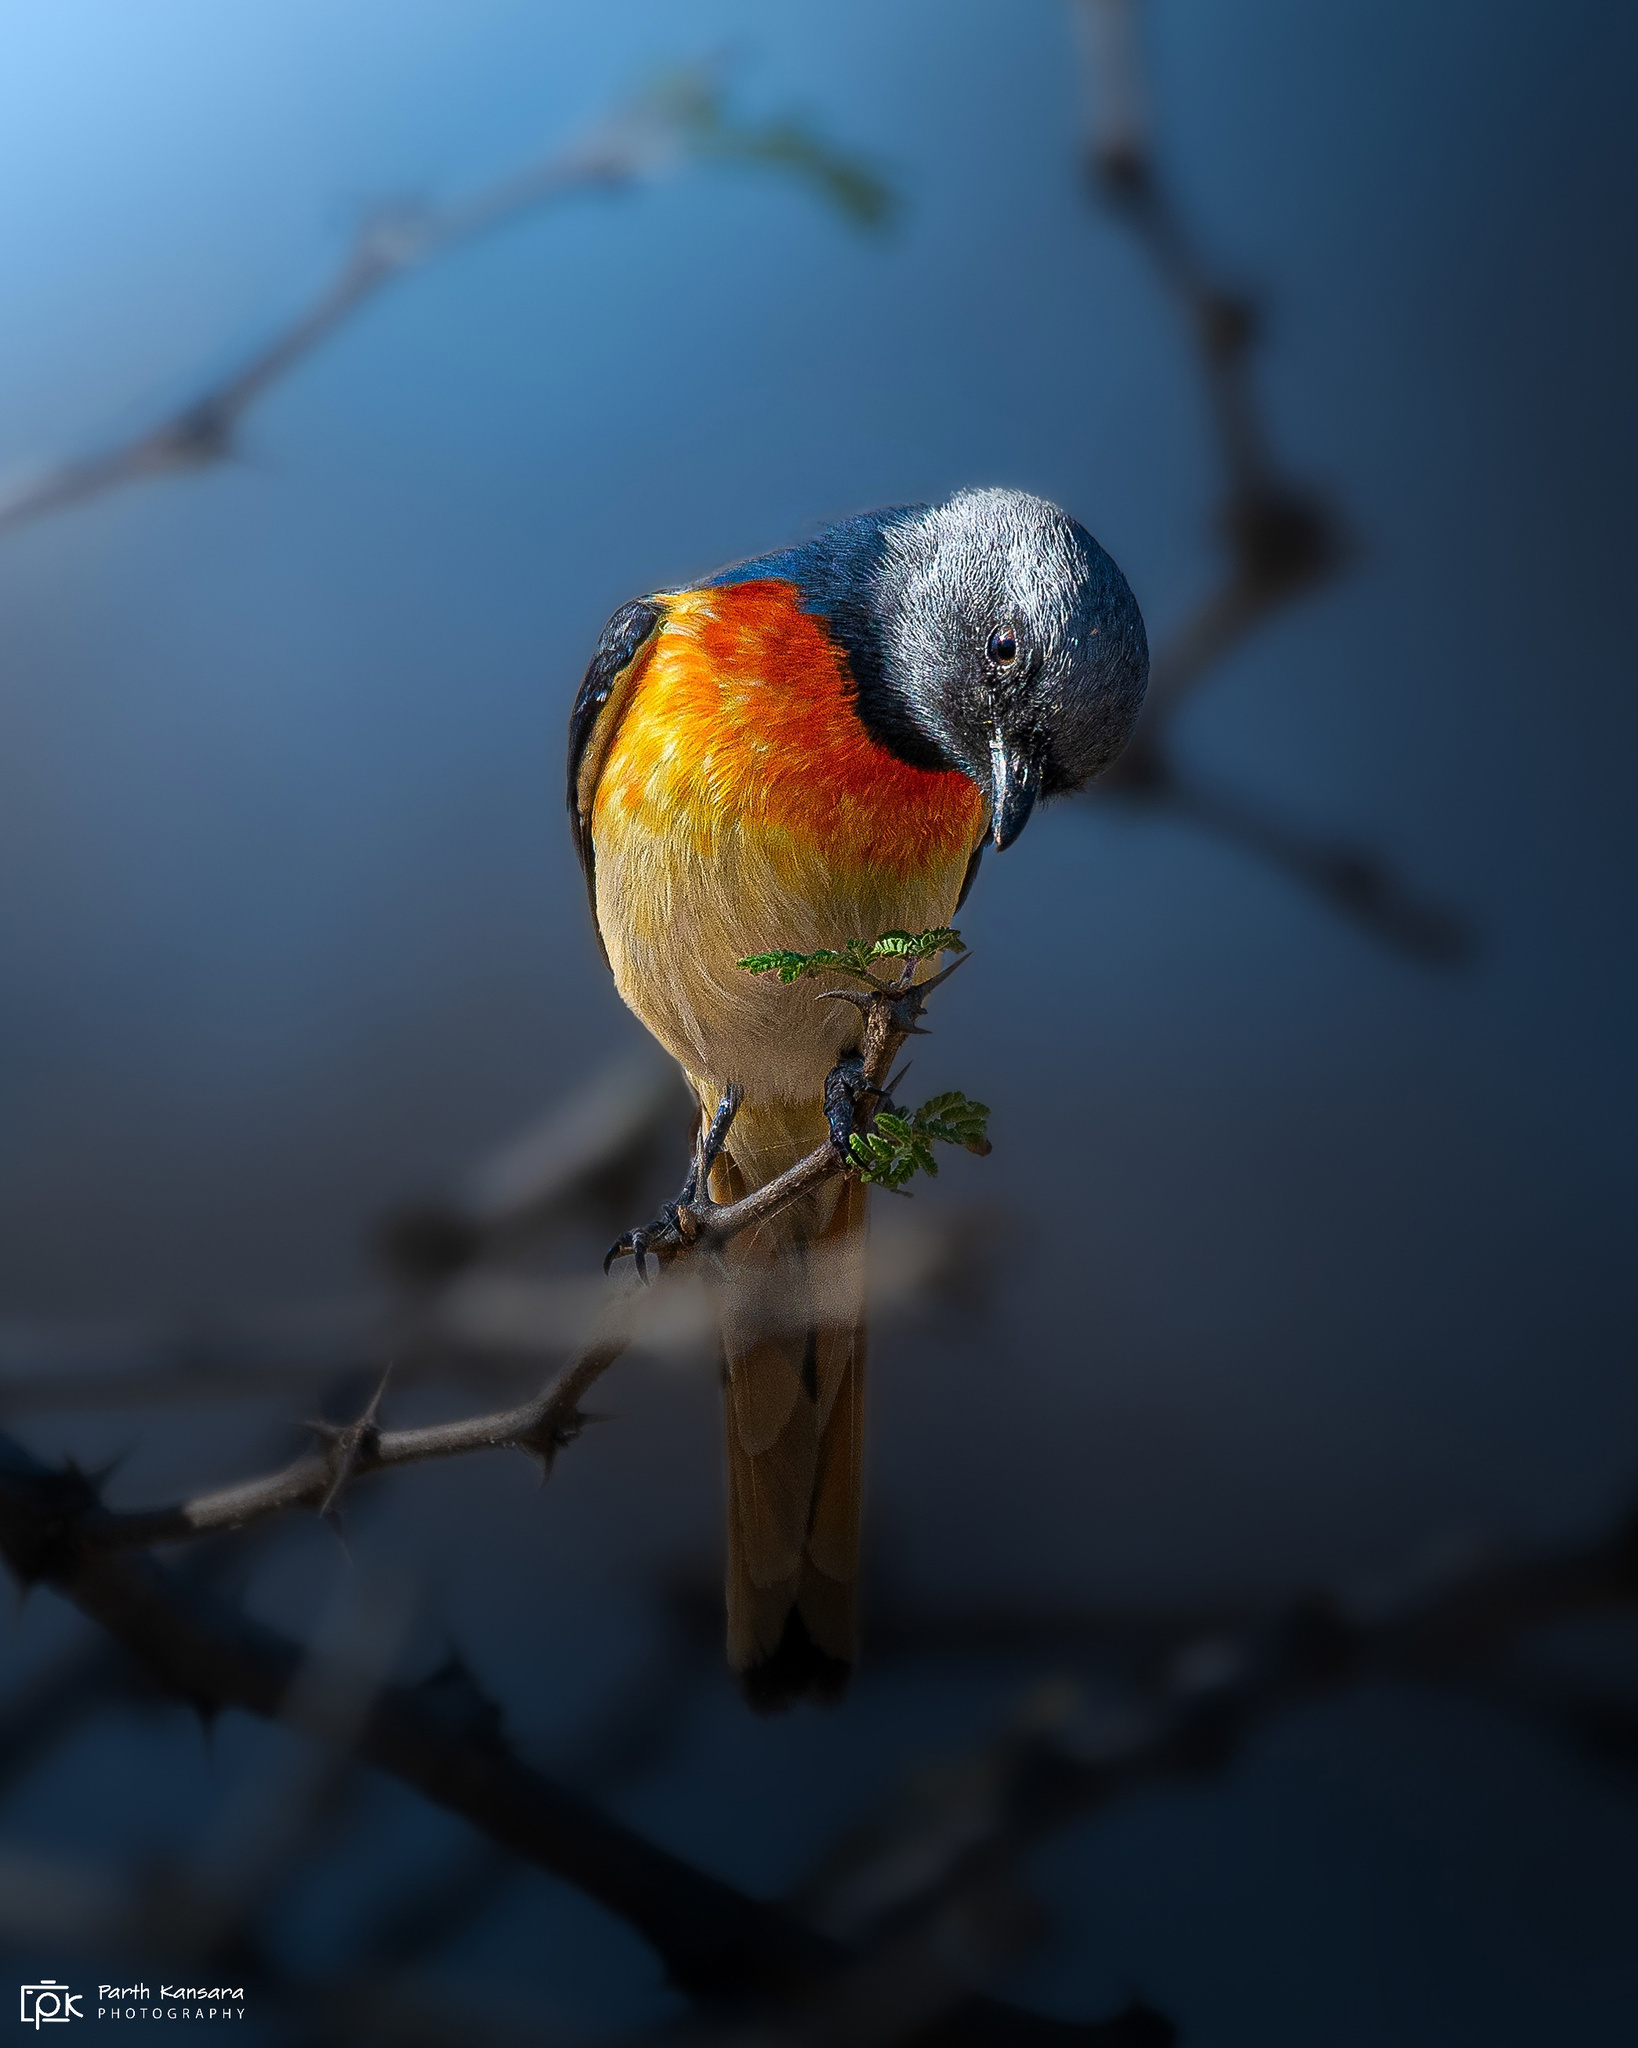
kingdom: Animalia
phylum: Chordata
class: Aves
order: Passeriformes
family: Campephagidae
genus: Pericrocotus
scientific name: Pericrocotus cinnamomeus
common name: Small minivet
